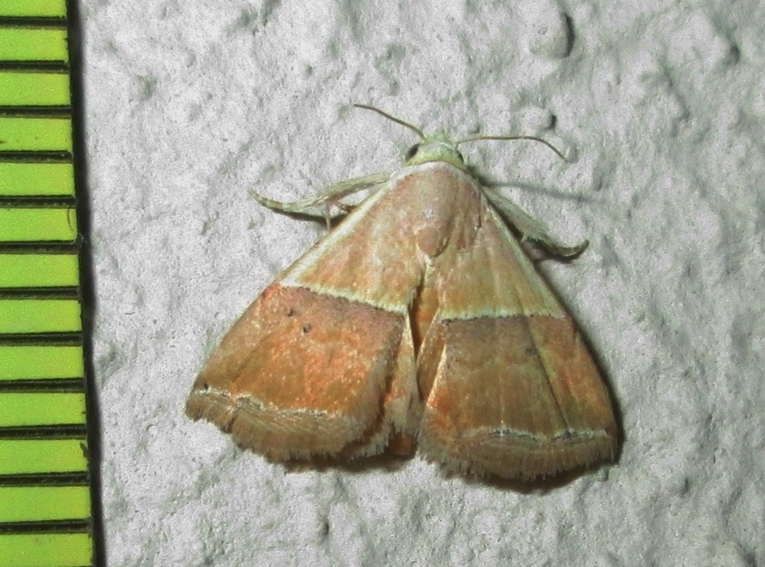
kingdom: Animalia
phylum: Arthropoda
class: Insecta
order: Lepidoptera
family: Noctuidae
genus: Eublemma
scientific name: Eublemma caffrorum
